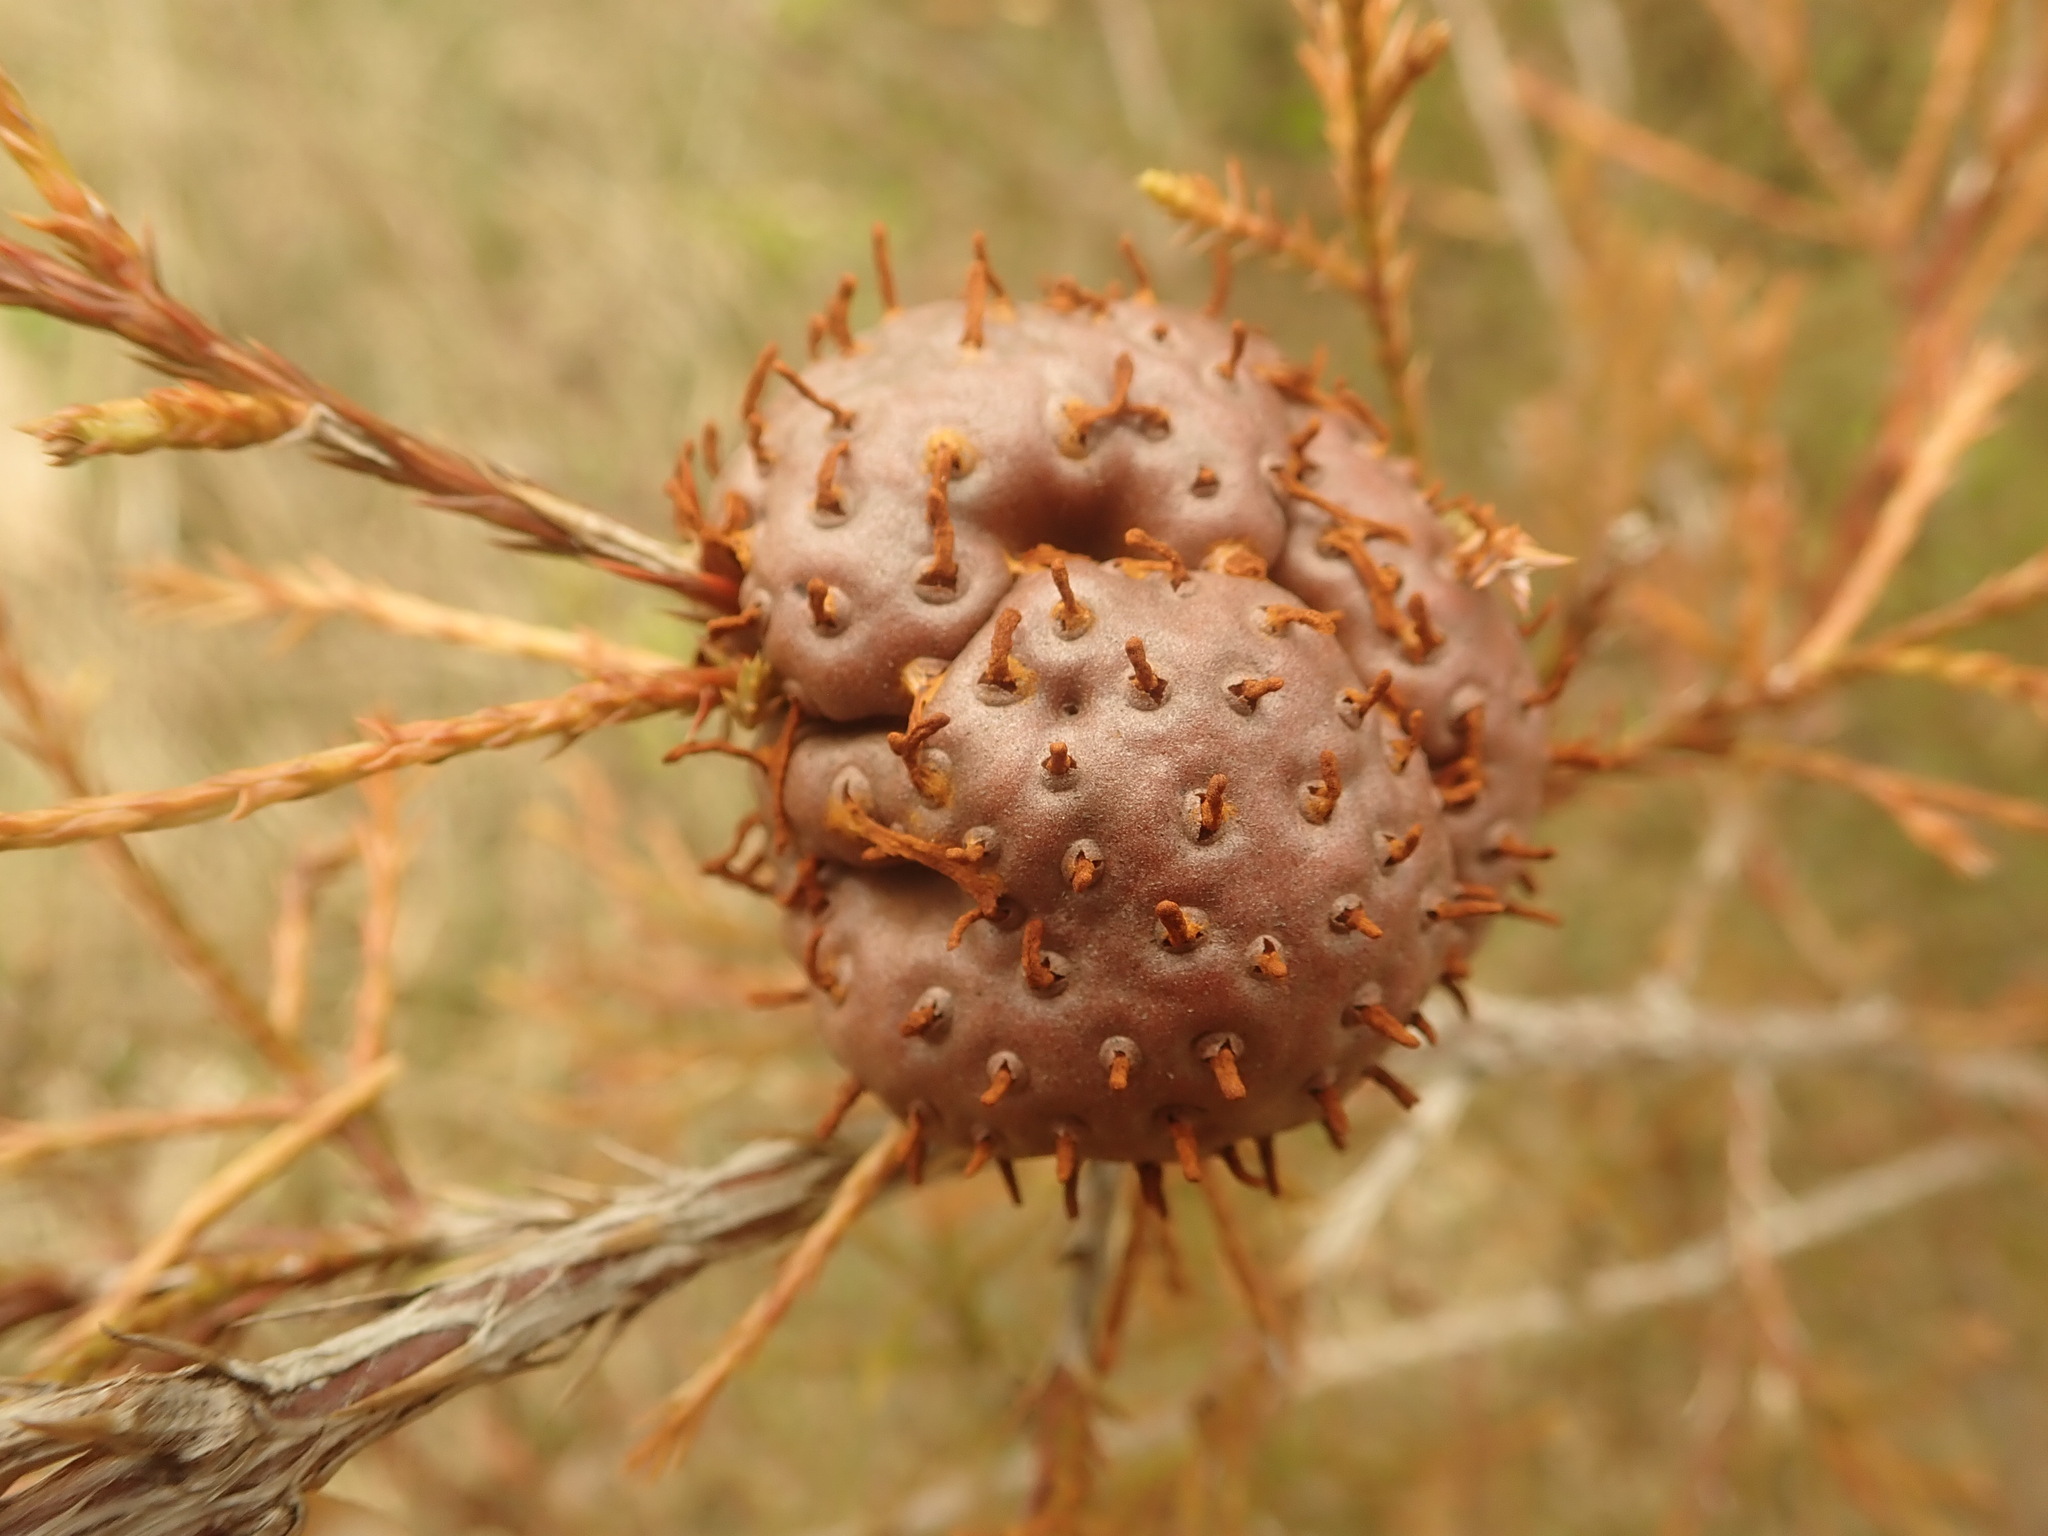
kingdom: Fungi
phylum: Basidiomycota
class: Pucciniomycetes
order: Pucciniales
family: Gymnosporangiaceae
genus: Gymnosporangium
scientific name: Gymnosporangium juniperi-virginianae
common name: Juniper-apple rust
